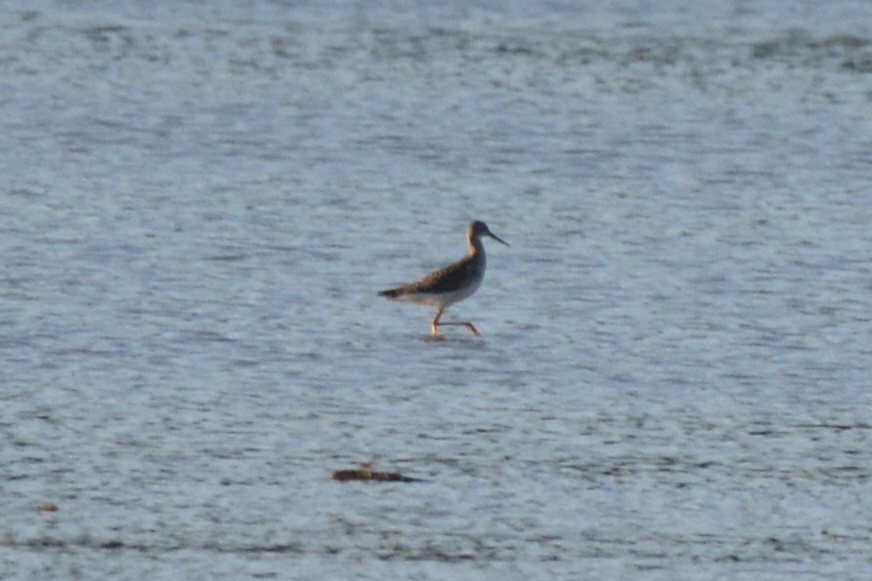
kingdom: Animalia
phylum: Chordata
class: Aves
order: Charadriiformes
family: Scolopacidae
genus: Tringa
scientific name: Tringa melanoleuca
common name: Greater yellowlegs
